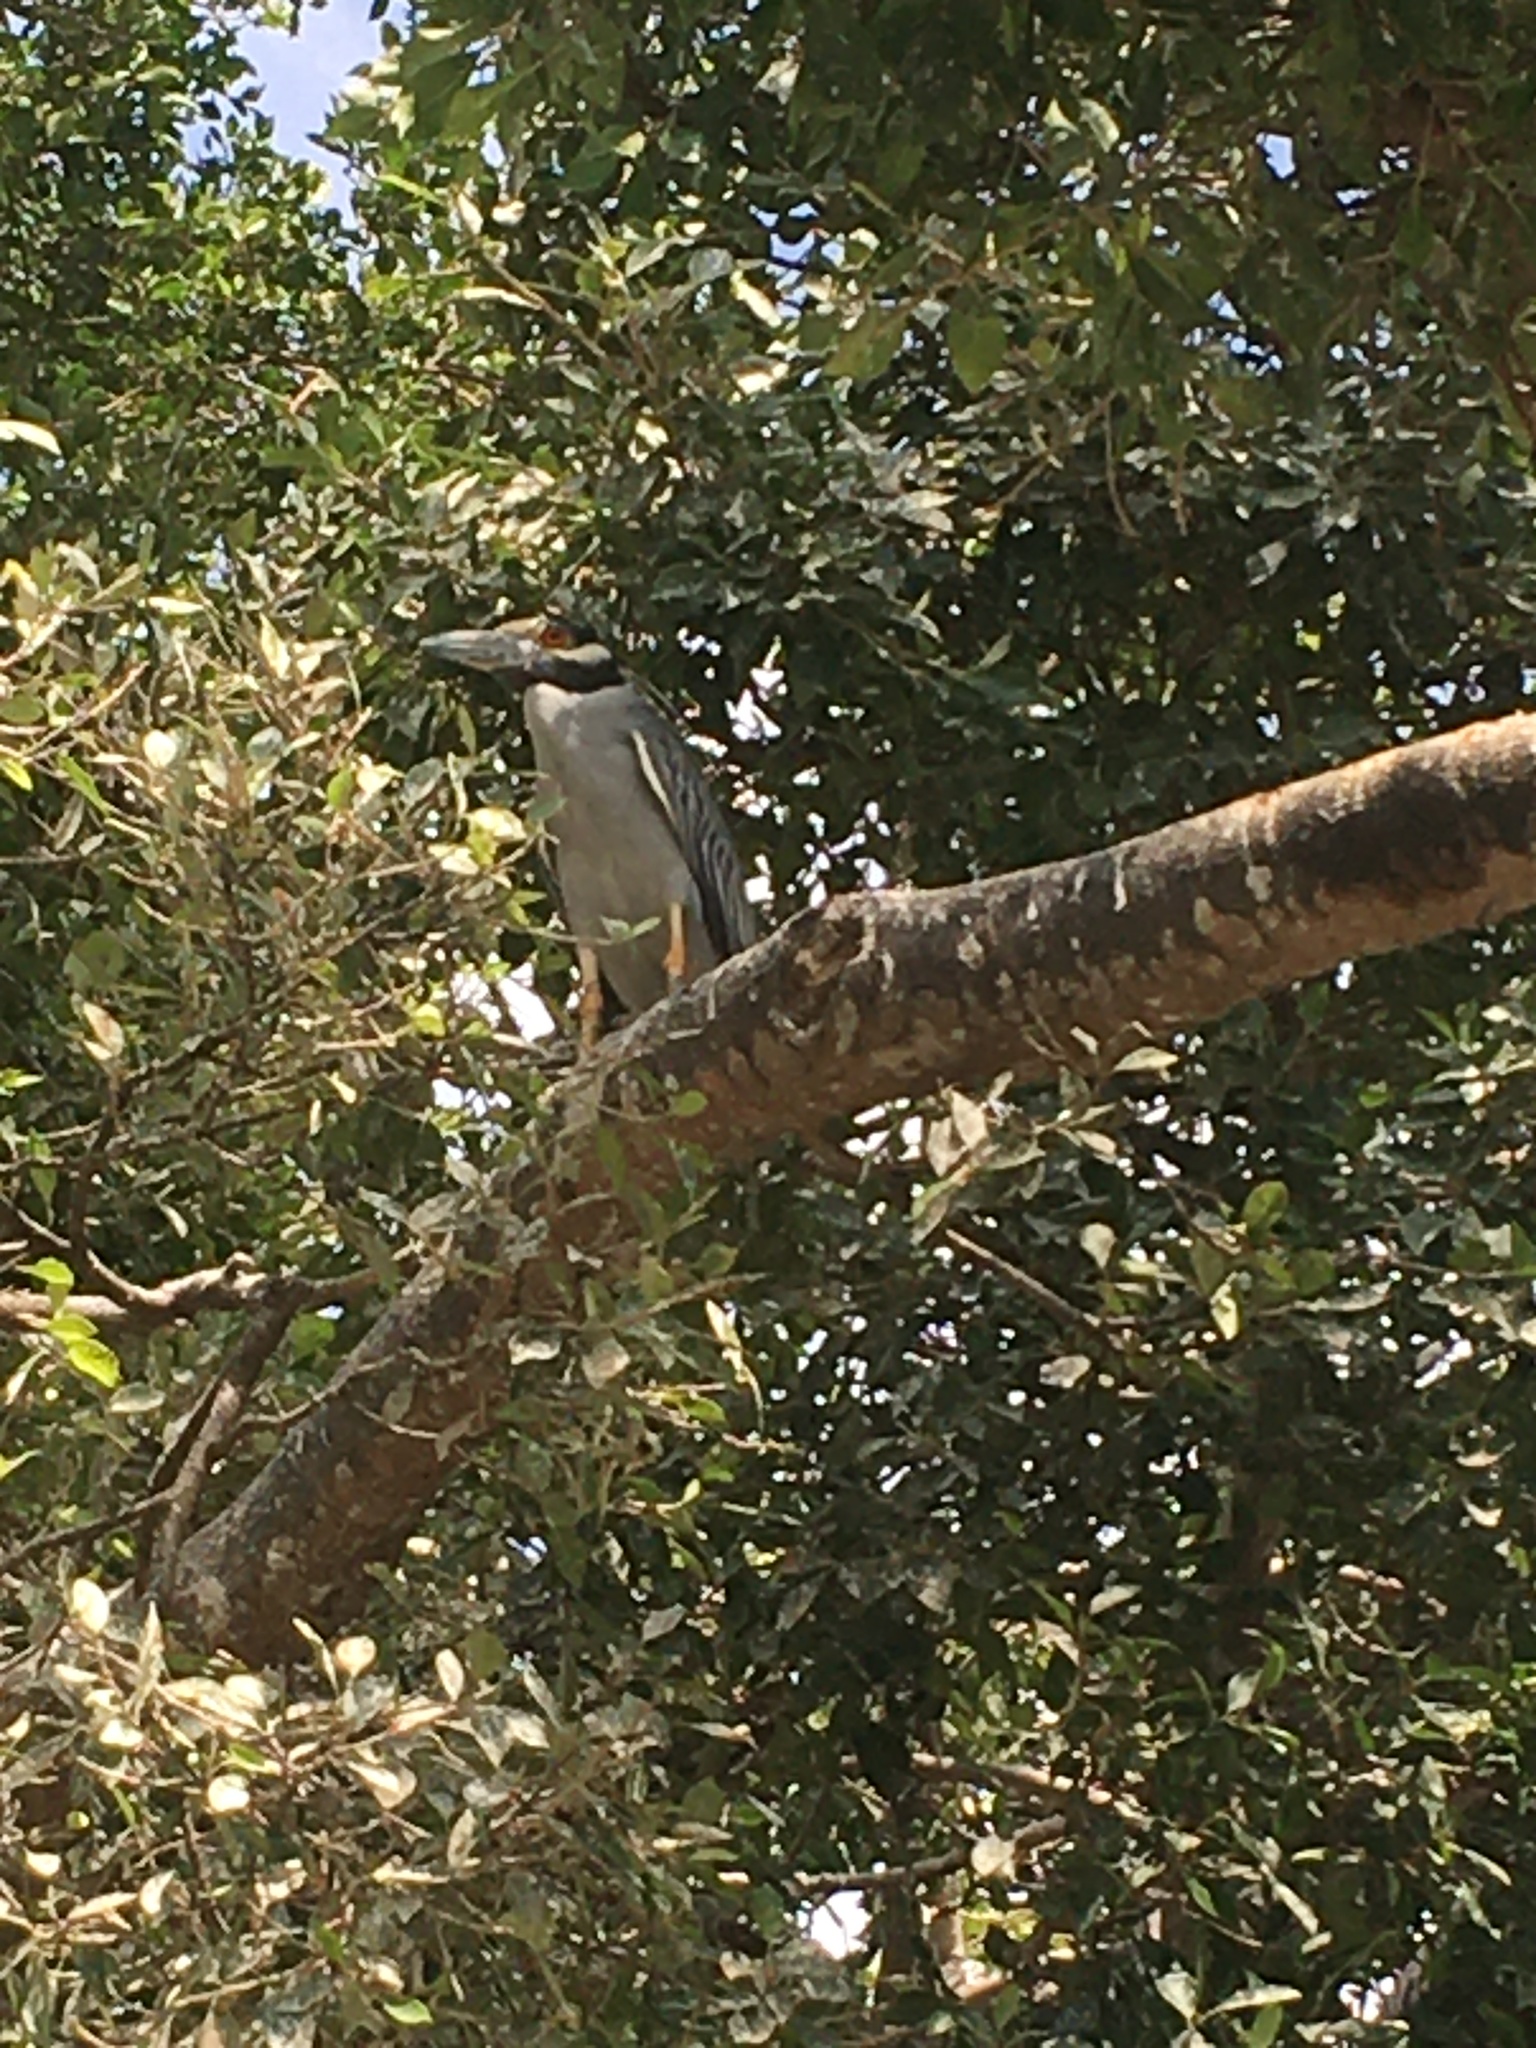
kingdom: Animalia
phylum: Chordata
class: Aves
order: Pelecaniformes
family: Ardeidae
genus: Nyctanassa
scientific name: Nyctanassa violacea
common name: Yellow-crowned night heron
